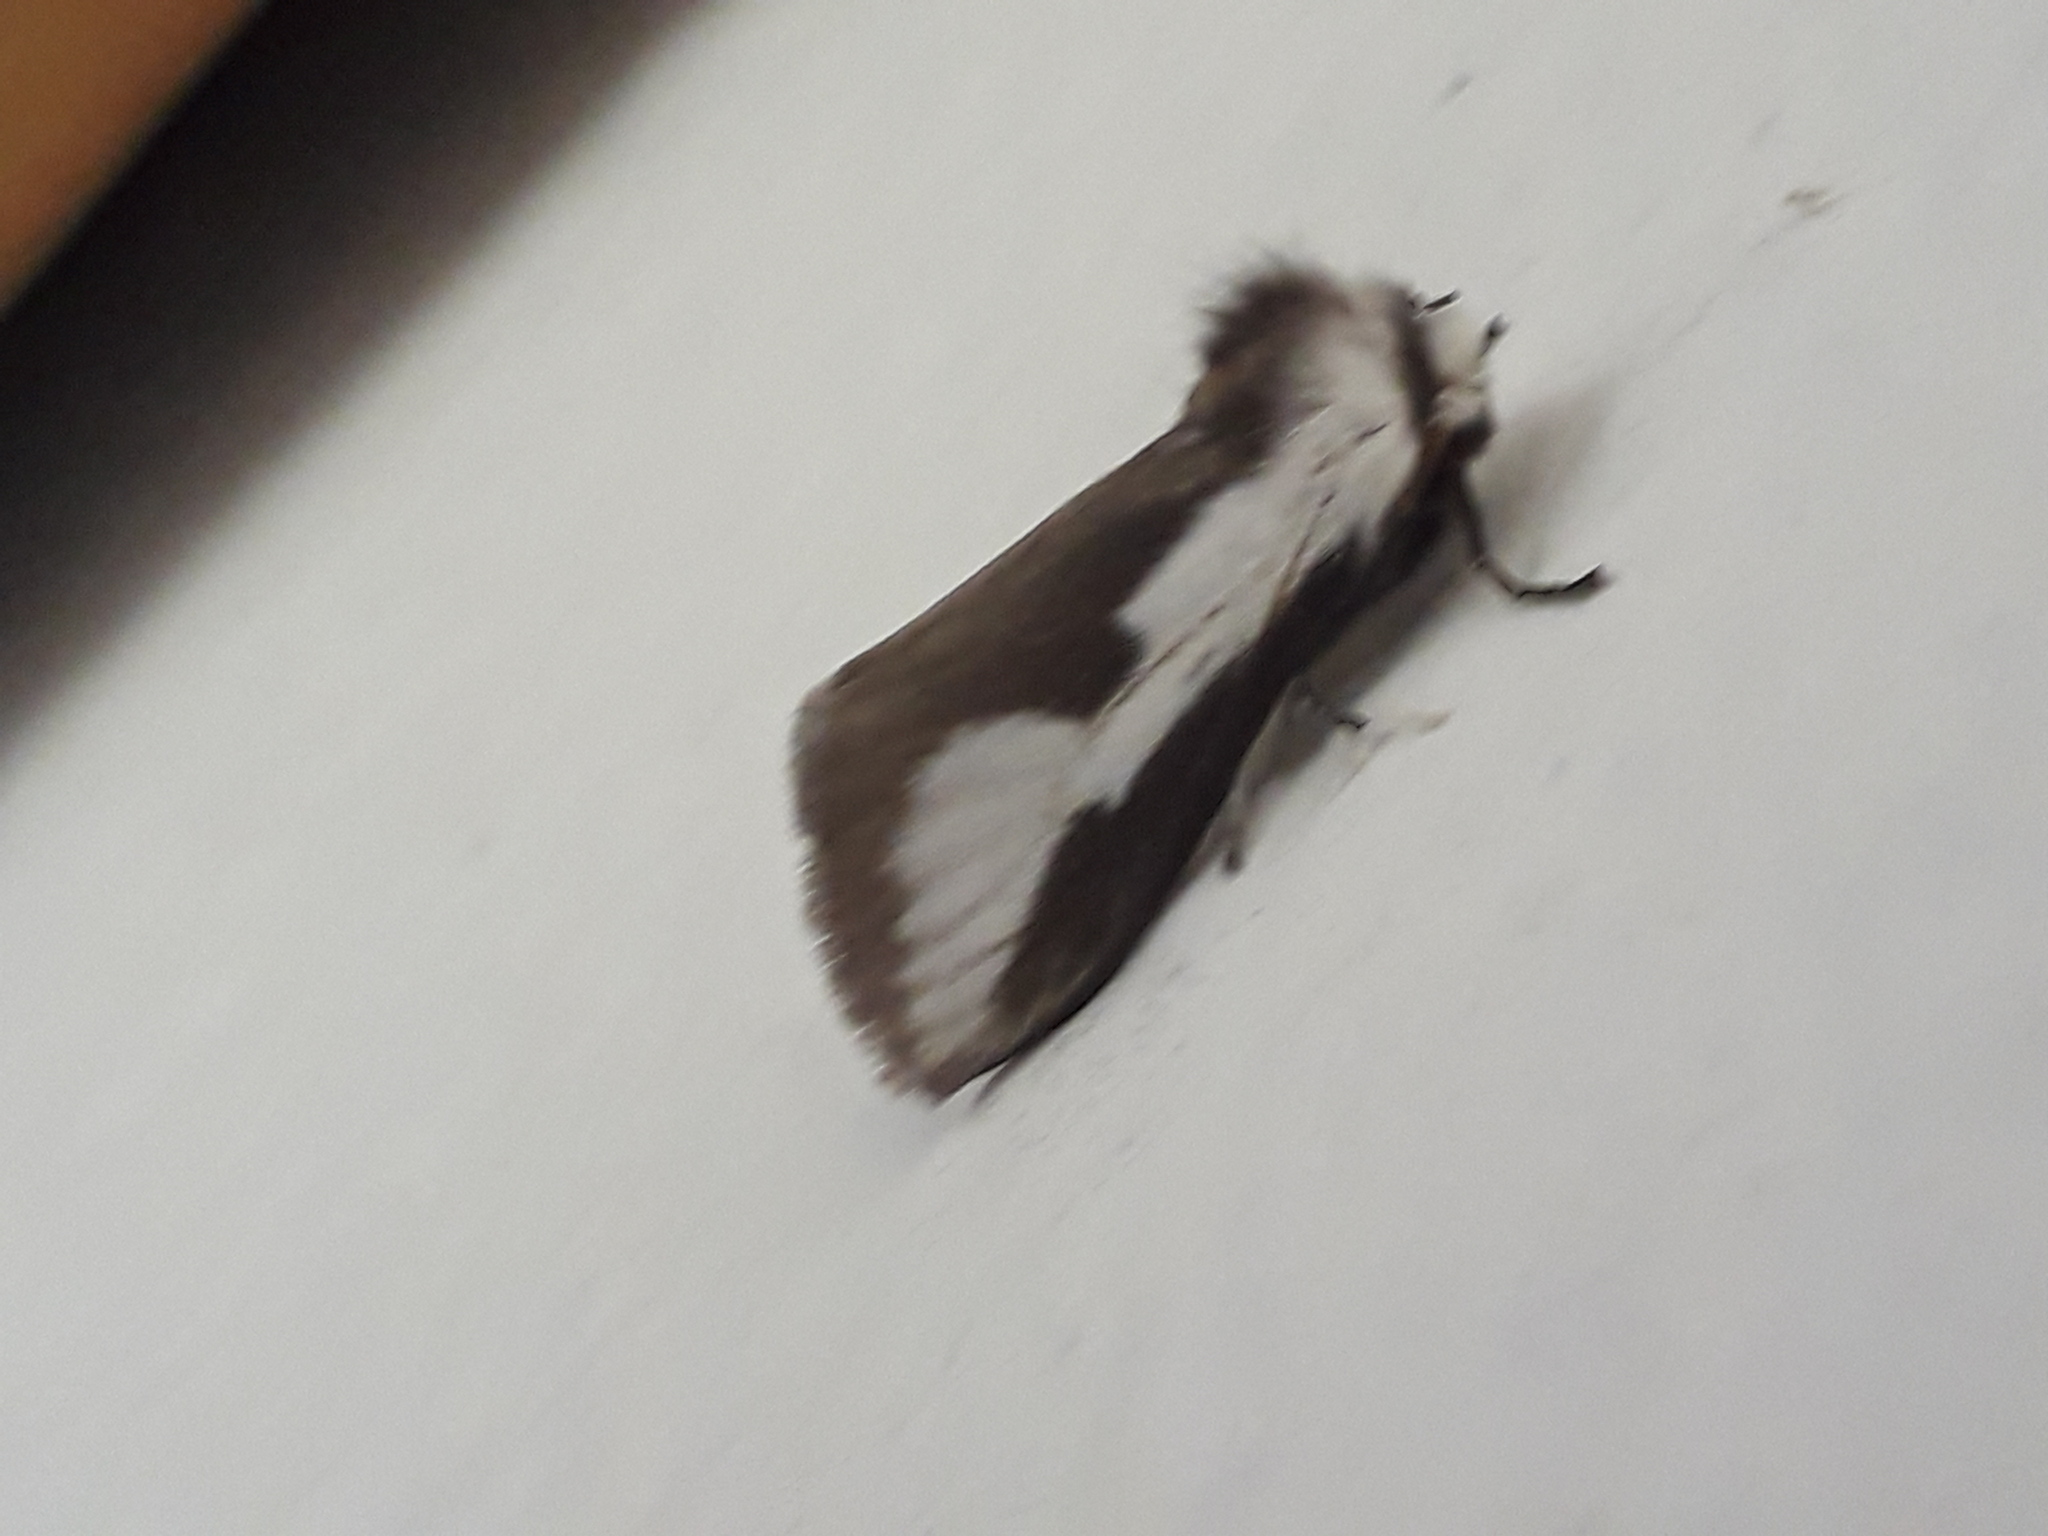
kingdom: Animalia
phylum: Arthropoda
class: Insecta
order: Lepidoptera
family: Megalopygidae
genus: Norape
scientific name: Norape tener
